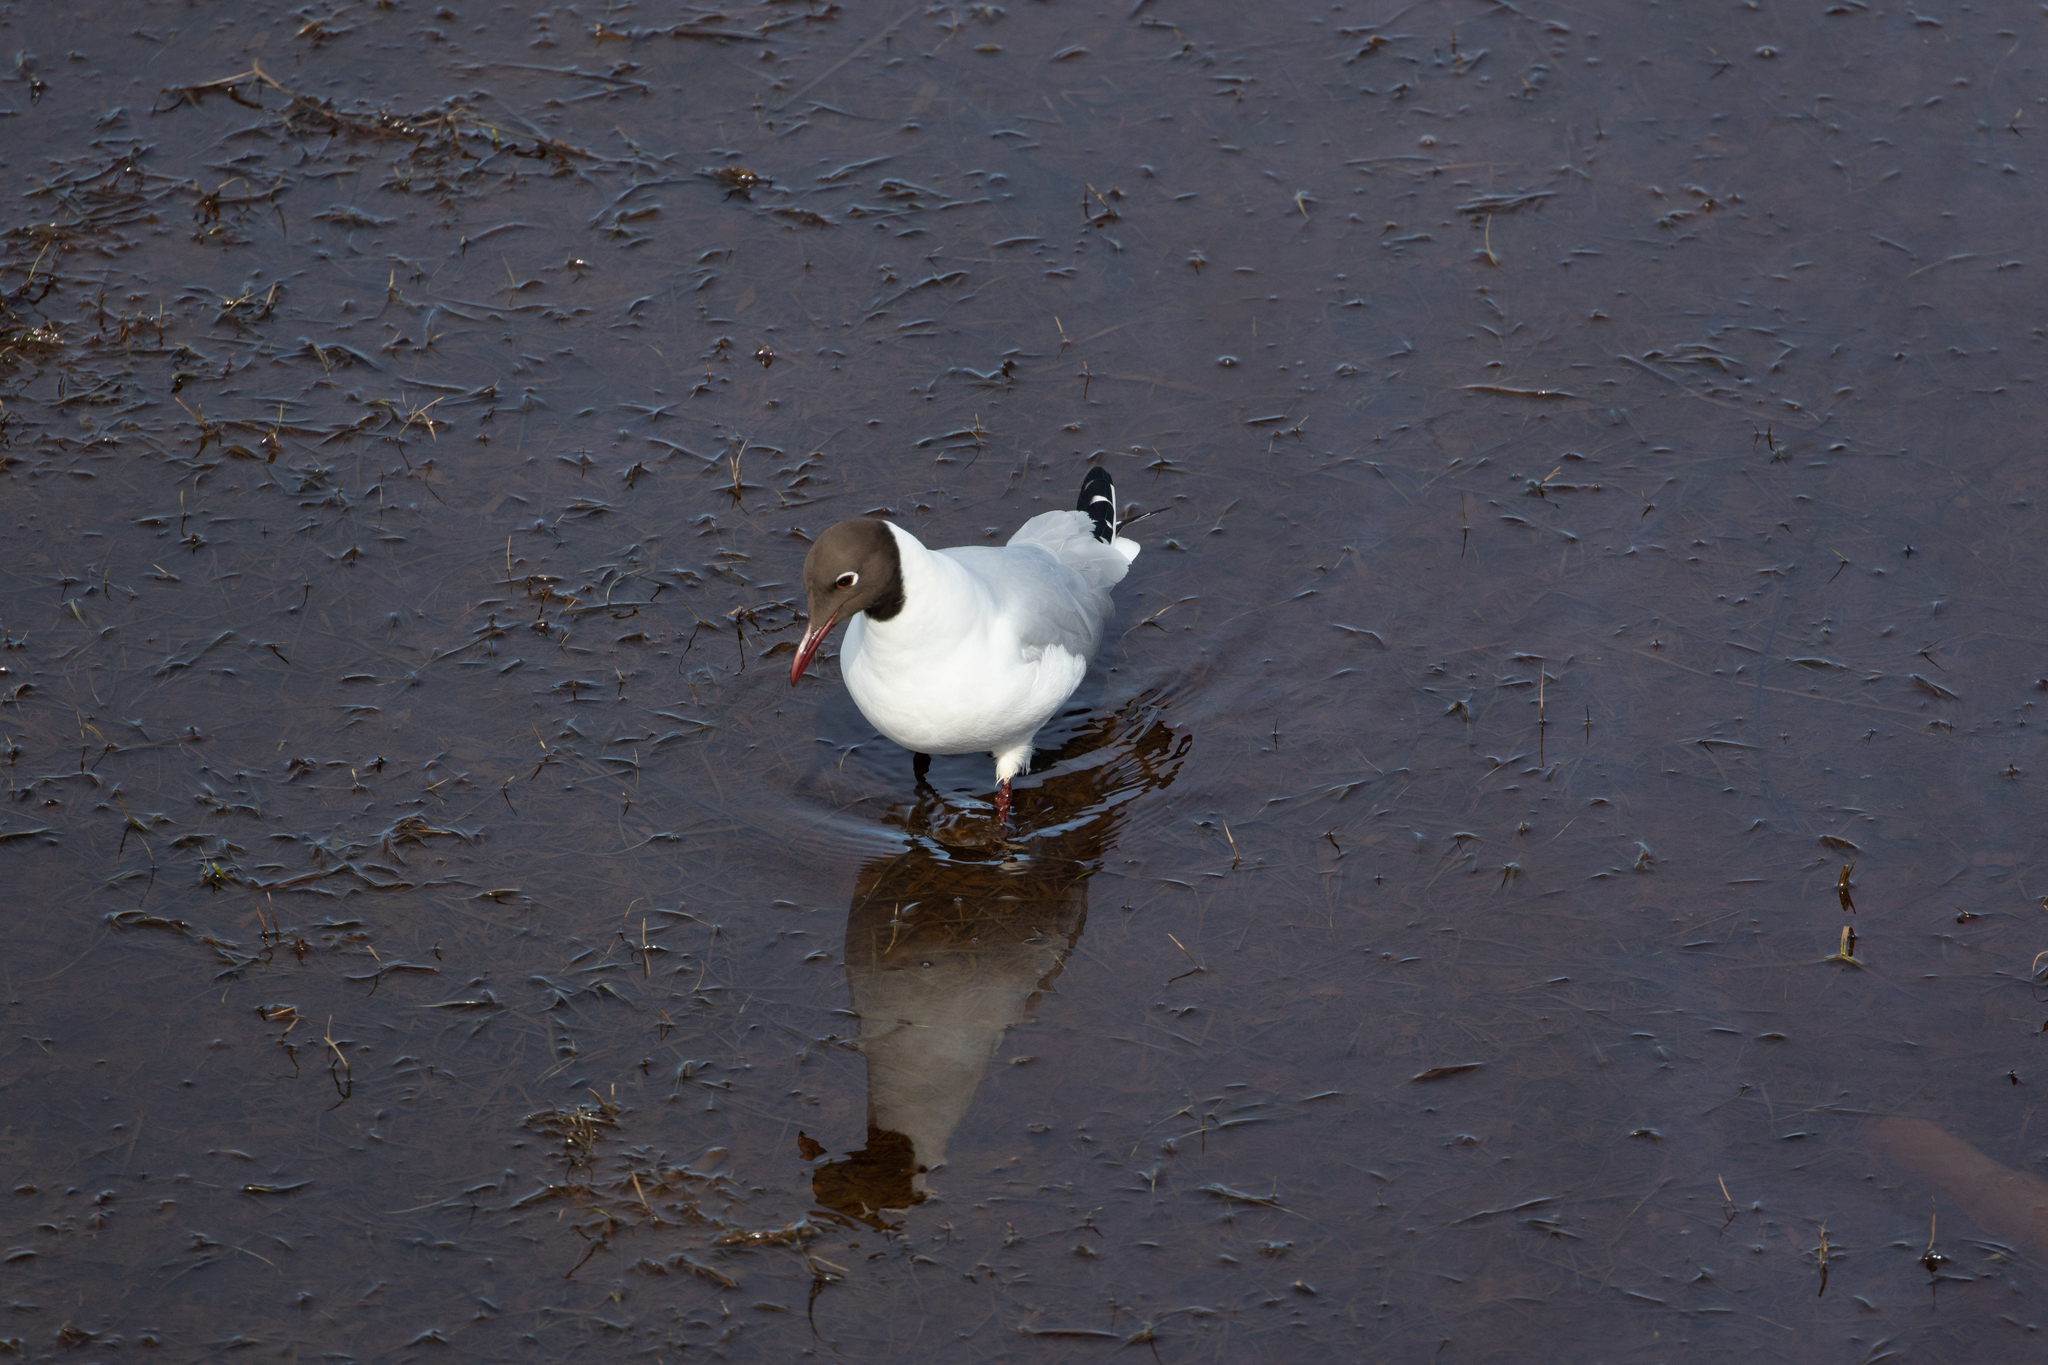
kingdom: Animalia
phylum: Chordata
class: Aves
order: Charadriiformes
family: Laridae
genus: Chroicocephalus
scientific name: Chroicocephalus ridibundus
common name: Black-headed gull
